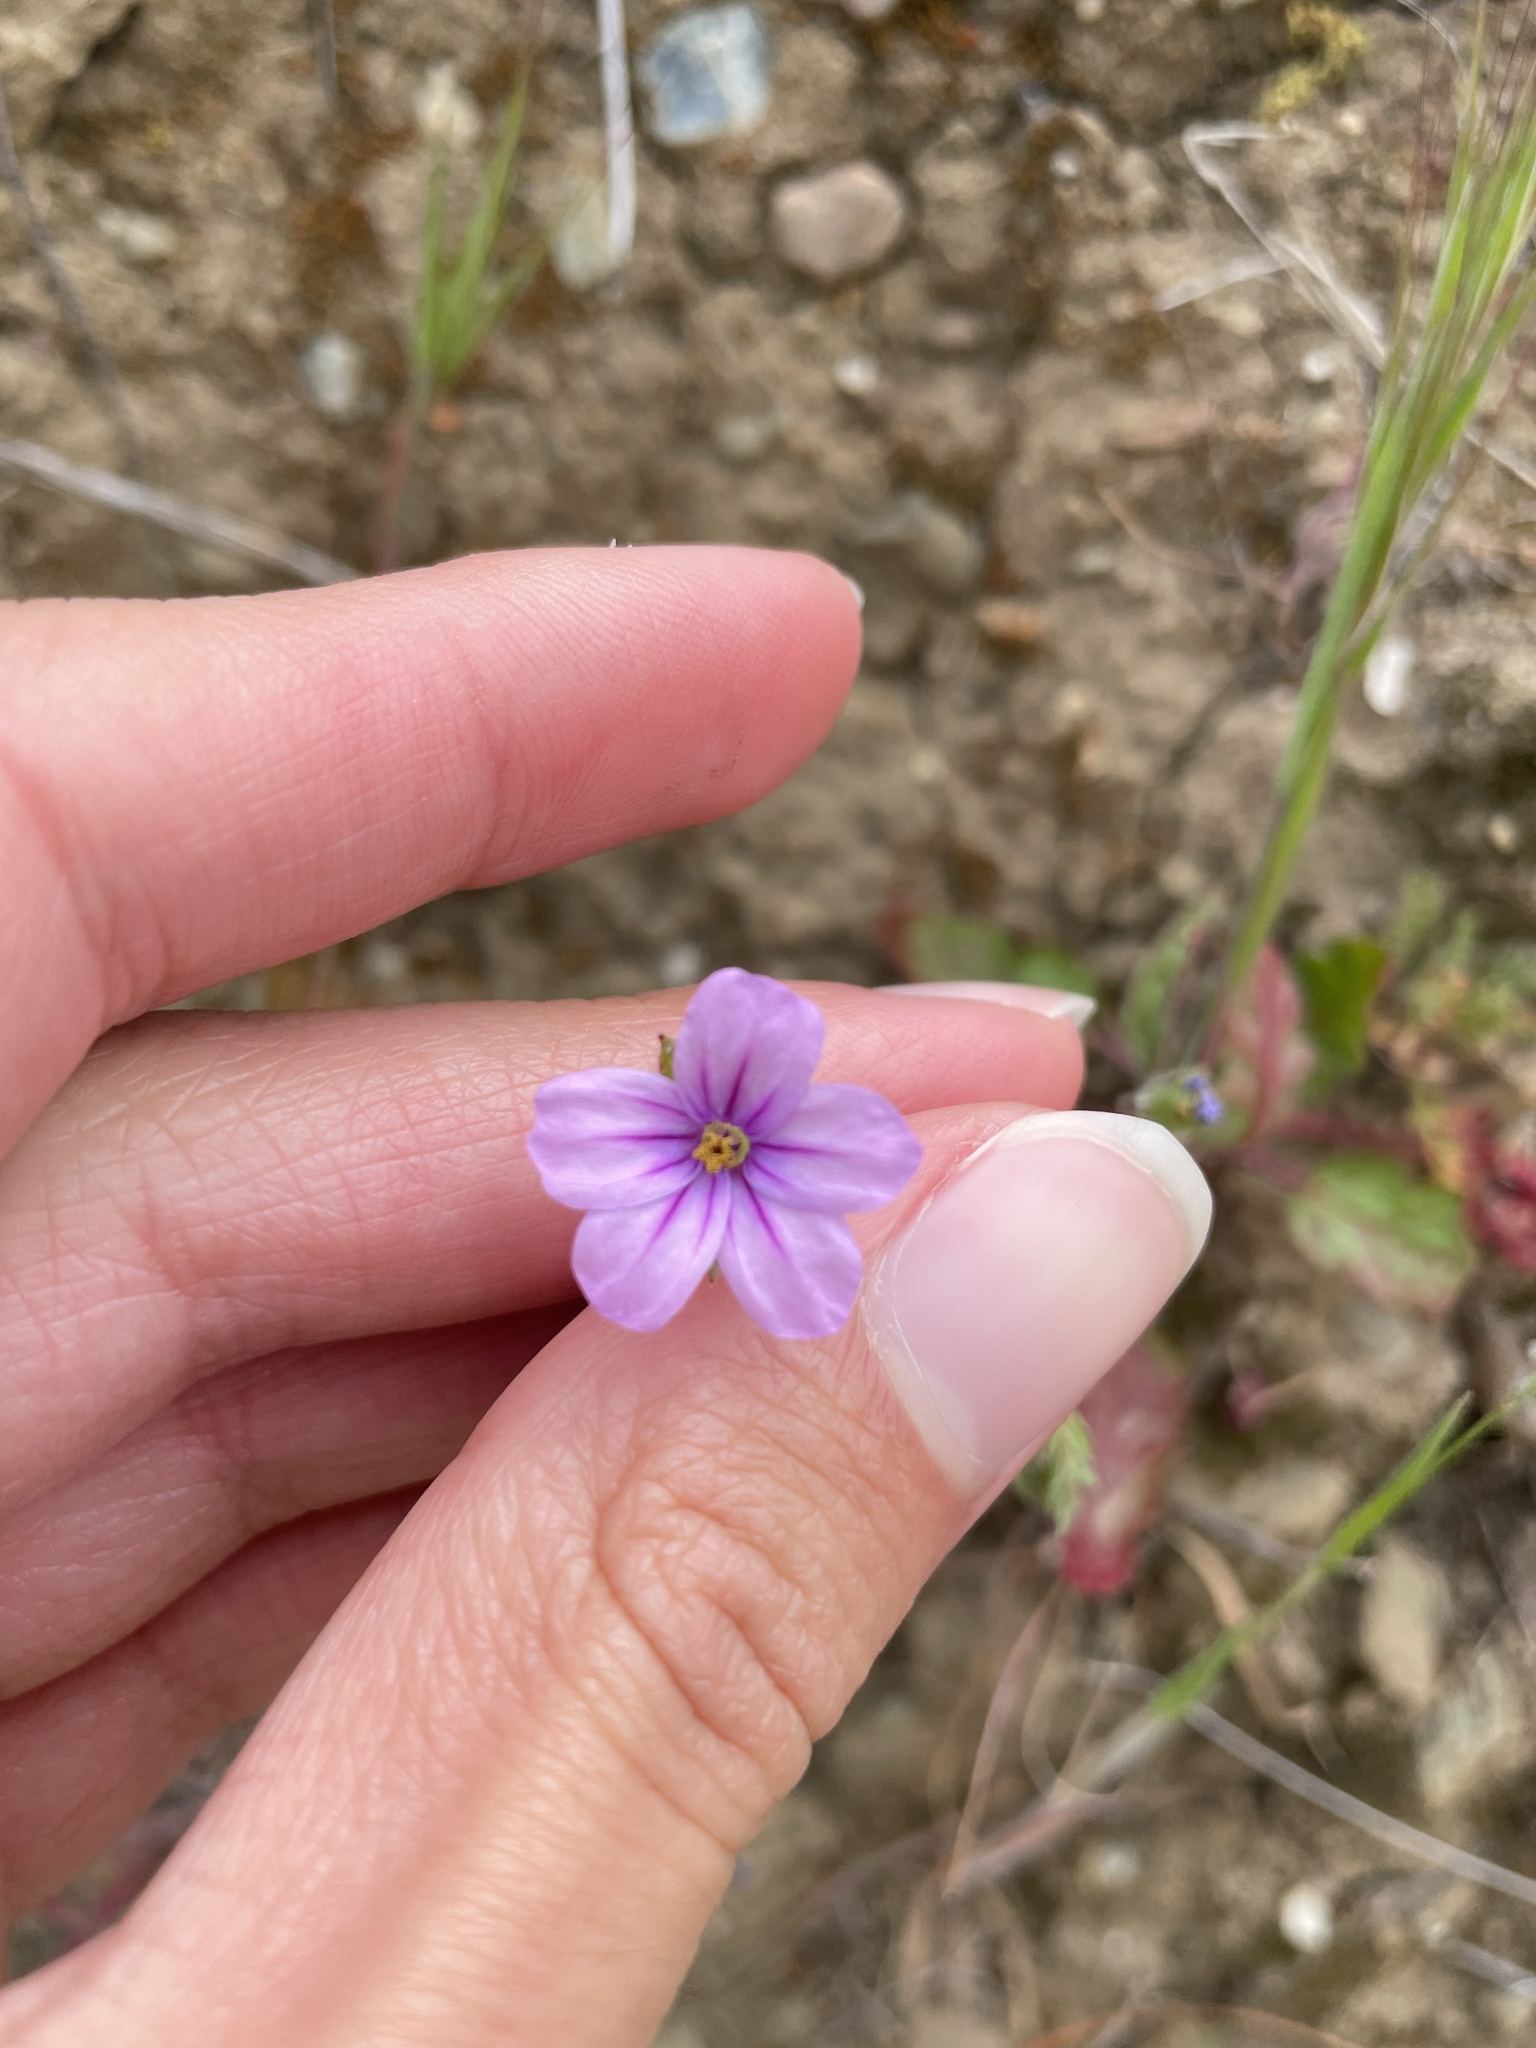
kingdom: Plantae
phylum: Tracheophyta
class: Magnoliopsida
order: Geraniales
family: Geraniaceae
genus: Erodium
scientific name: Erodium botrys
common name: Mediterranean stork's-bill
